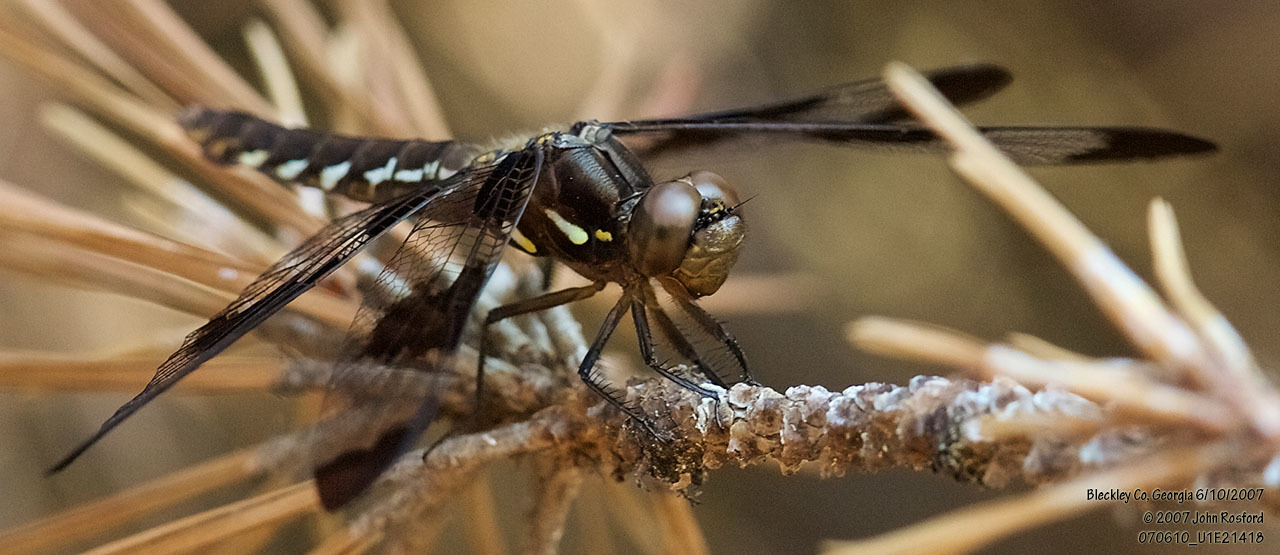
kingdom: Animalia
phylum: Arthropoda
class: Insecta
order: Odonata
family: Libellulidae
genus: Plathemis
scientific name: Plathemis lydia
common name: Common whitetail
